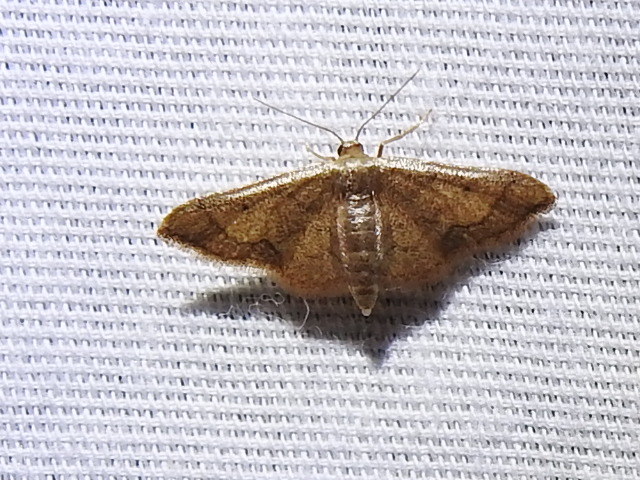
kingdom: Animalia
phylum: Arthropoda
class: Insecta
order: Lepidoptera
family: Geometridae
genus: Idaea
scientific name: Idaea kendallaria
